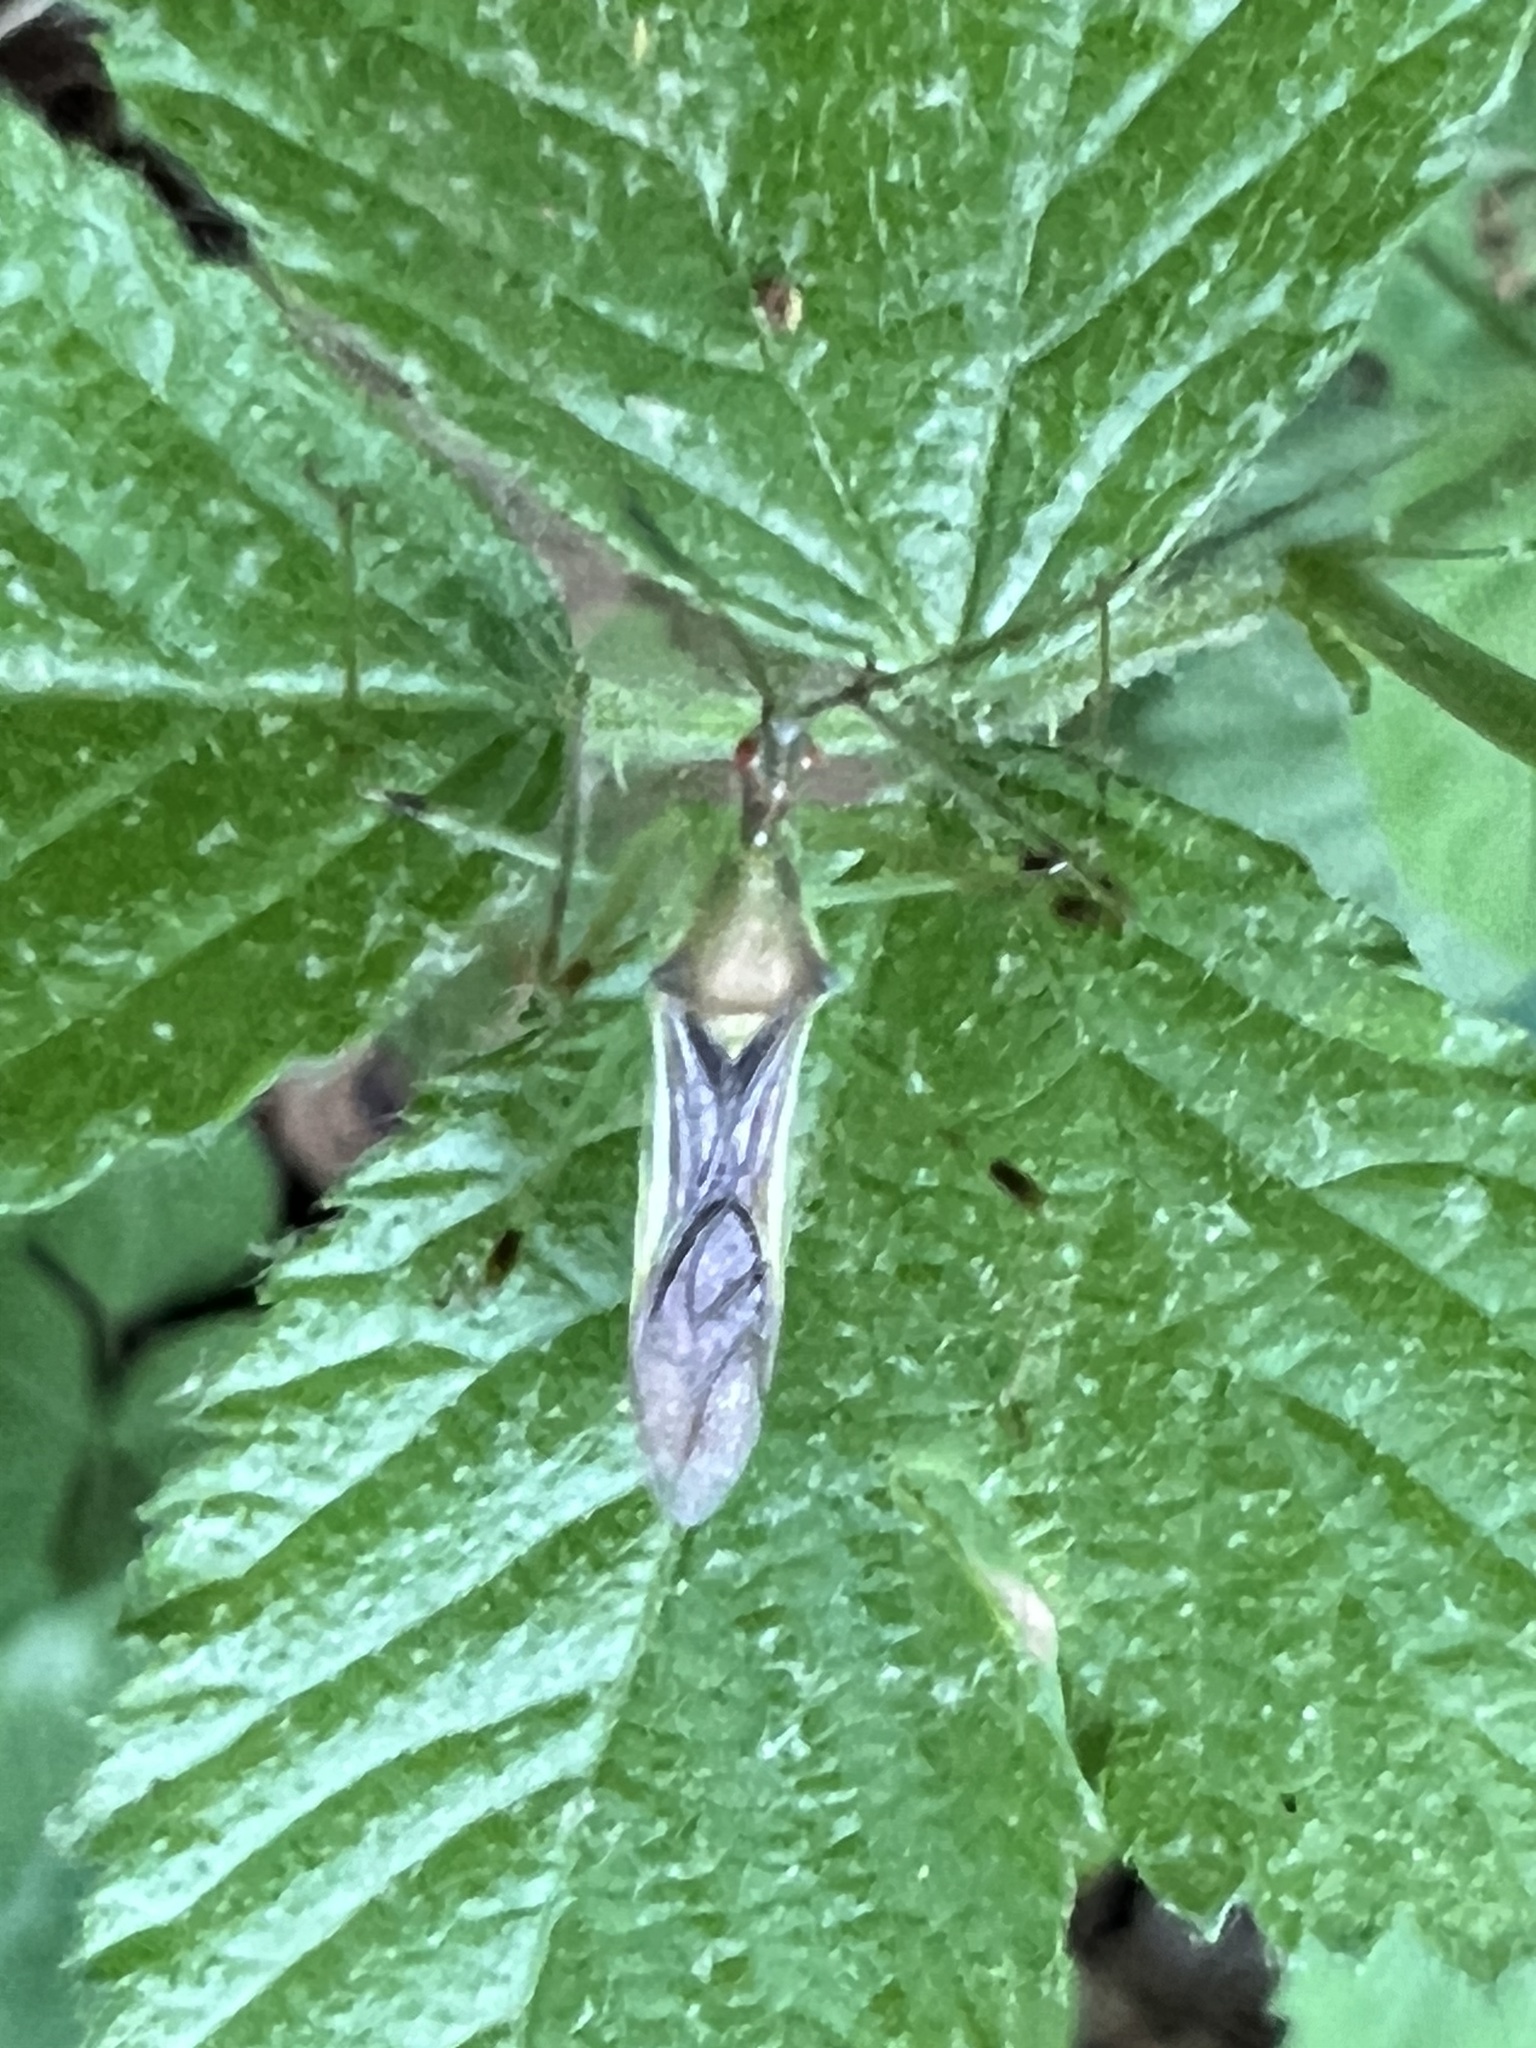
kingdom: Animalia
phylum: Arthropoda
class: Insecta
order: Hemiptera
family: Reduviidae
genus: Zelus
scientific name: Zelus luridus
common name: Pale green assassin bug
